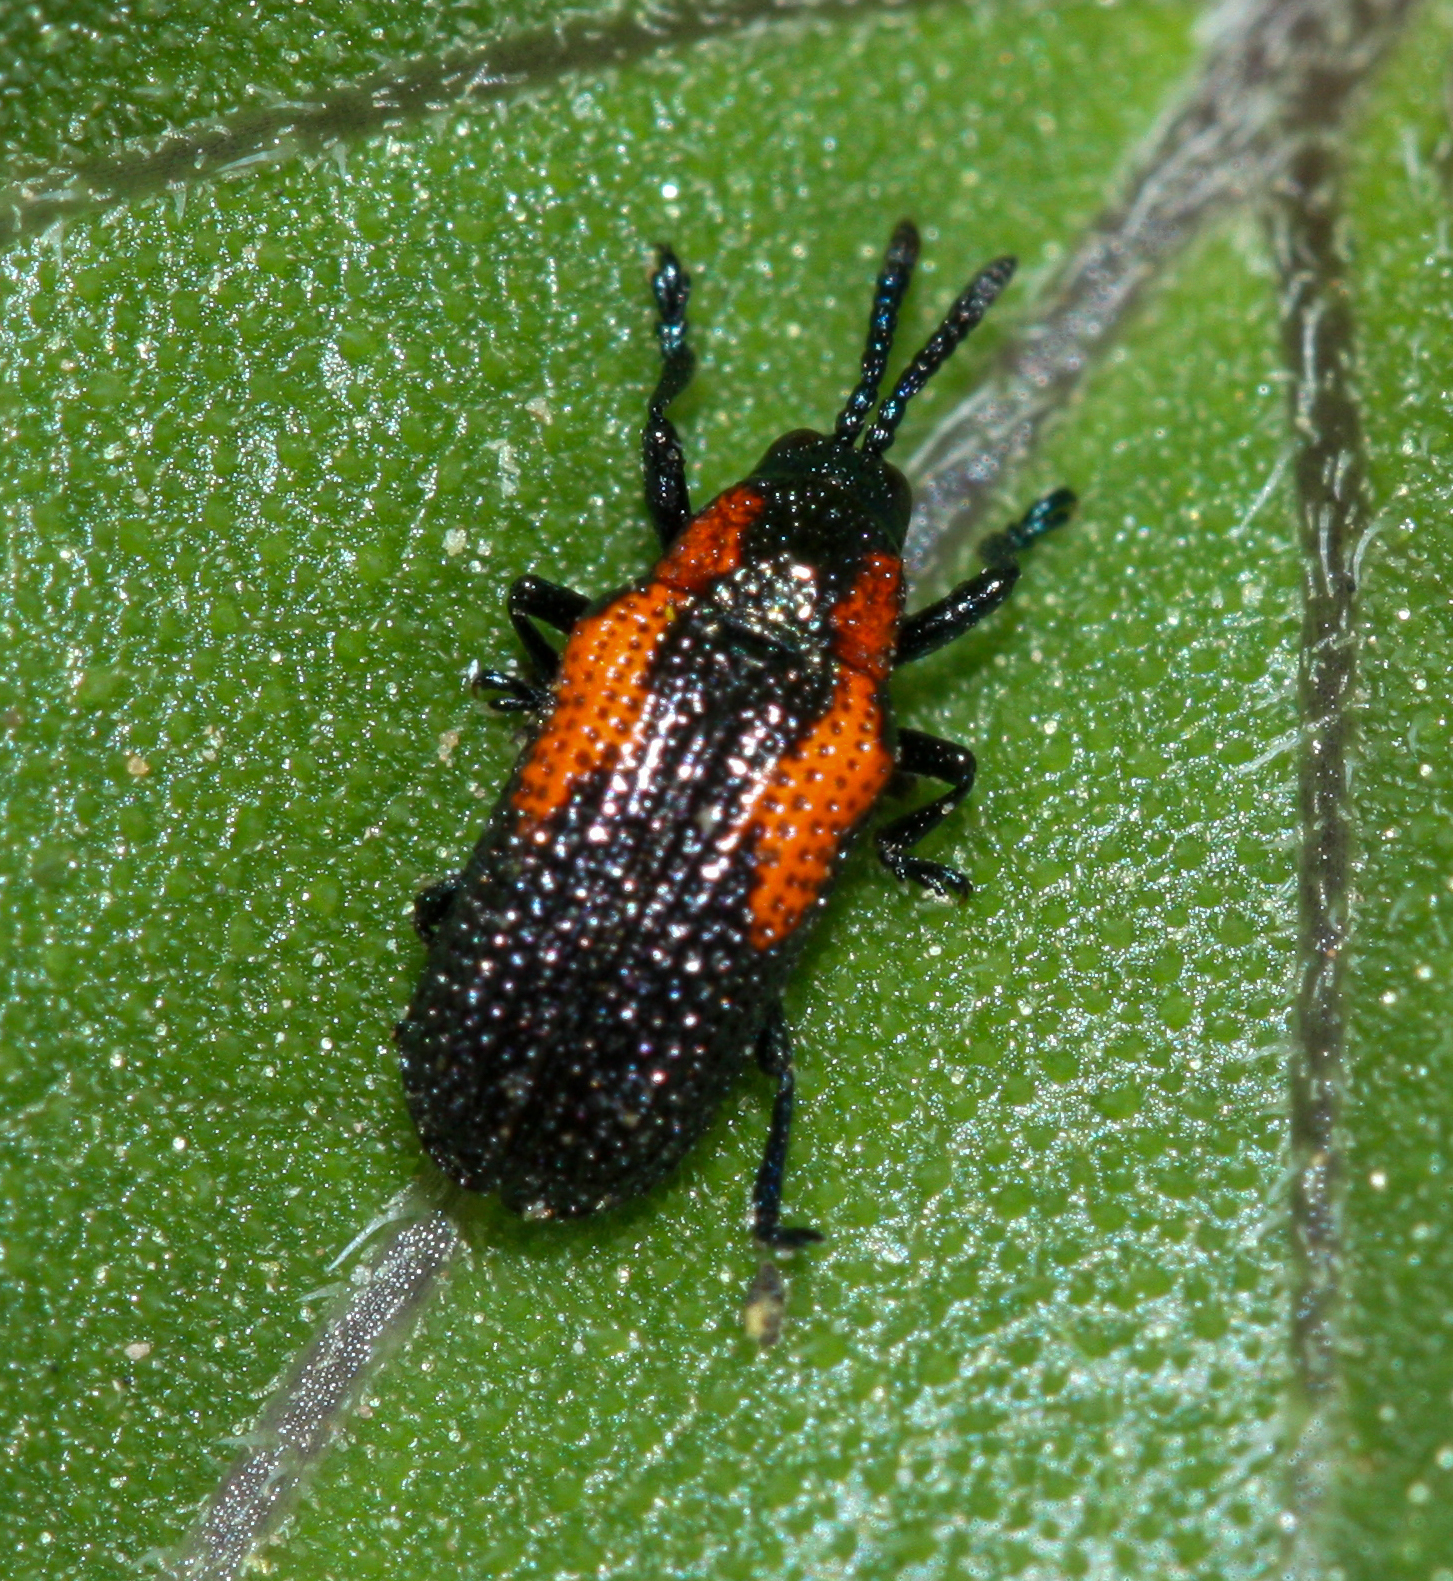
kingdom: Animalia
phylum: Arthropoda
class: Insecta
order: Coleoptera
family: Chrysomelidae
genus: Microrhopala
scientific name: Microrhopala rubrolineata
